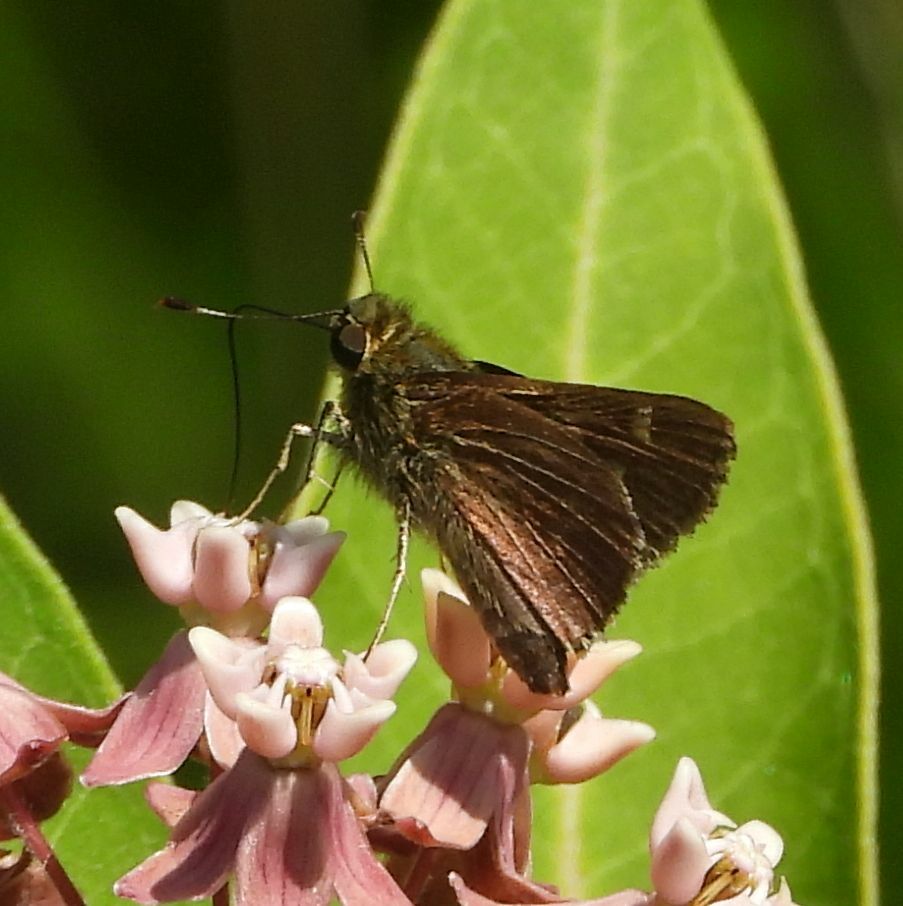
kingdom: Animalia
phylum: Arthropoda
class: Insecta
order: Lepidoptera
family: Hesperiidae
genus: Vernia
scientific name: Vernia verna
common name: Little glassywing
